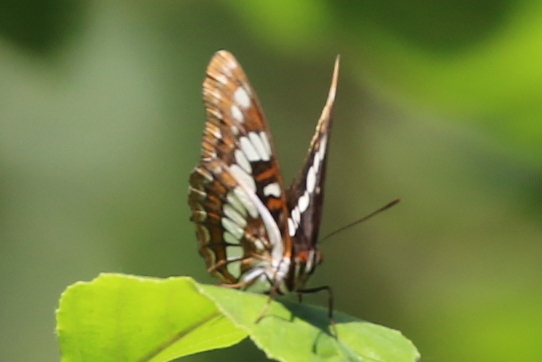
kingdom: Animalia
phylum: Arthropoda
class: Insecta
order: Lepidoptera
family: Nymphalidae
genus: Limenitis
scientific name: Limenitis lorquini
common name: Lorquin's admiral
